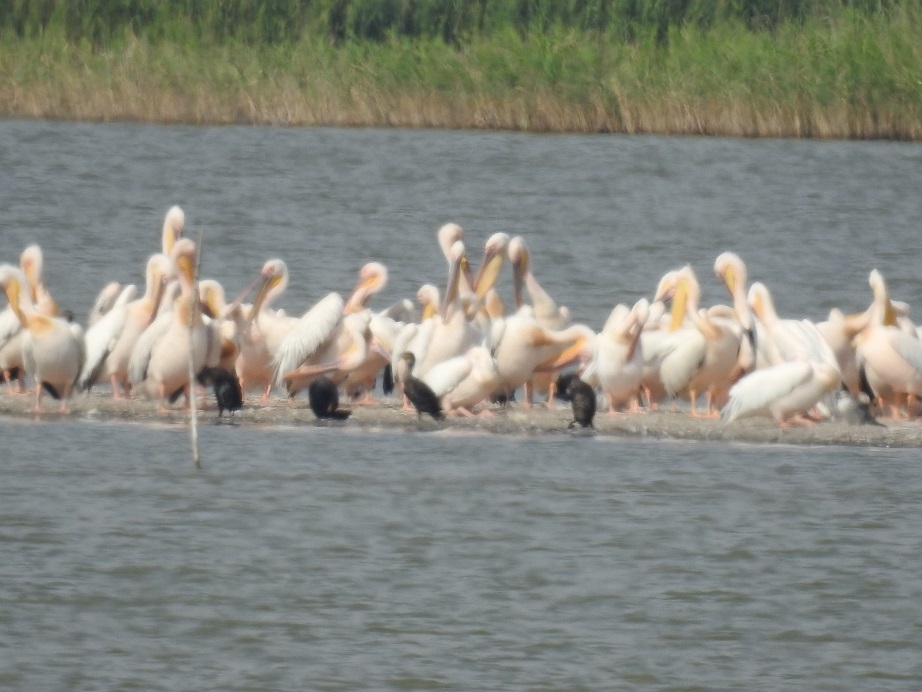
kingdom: Animalia
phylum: Chordata
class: Aves
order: Pelecaniformes
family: Pelecanidae
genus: Pelecanus
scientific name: Pelecanus onocrotalus
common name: Great white pelican
